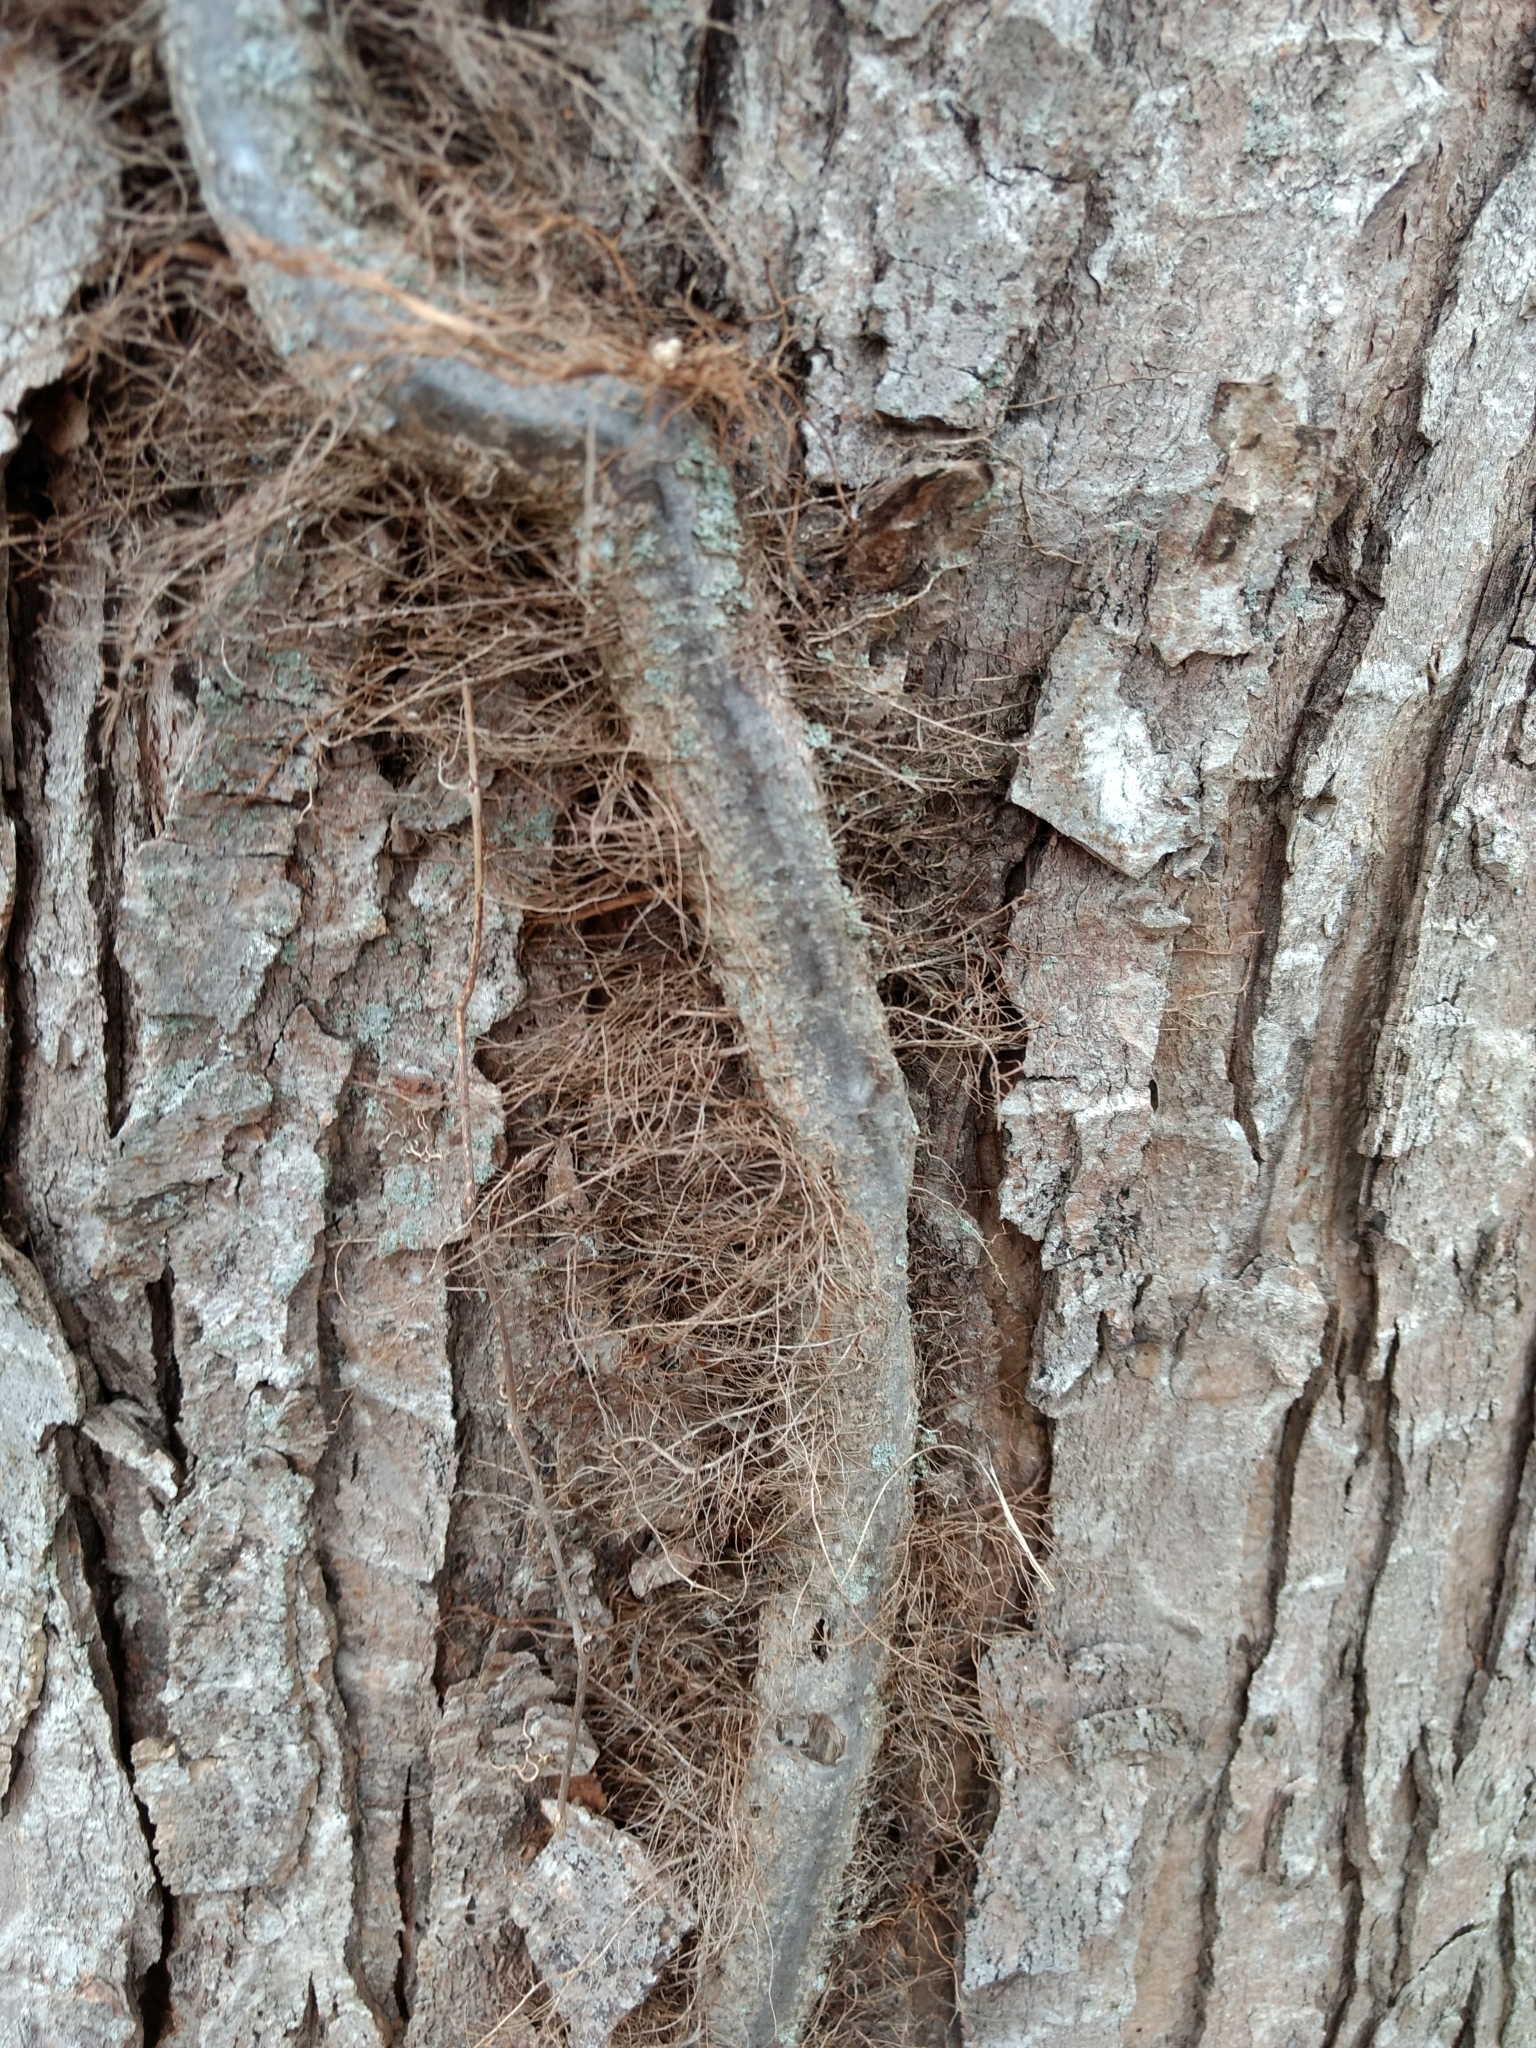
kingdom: Plantae
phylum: Tracheophyta
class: Magnoliopsida
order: Sapindales
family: Anacardiaceae
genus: Toxicodendron
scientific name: Toxicodendron radicans
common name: Poison ivy
